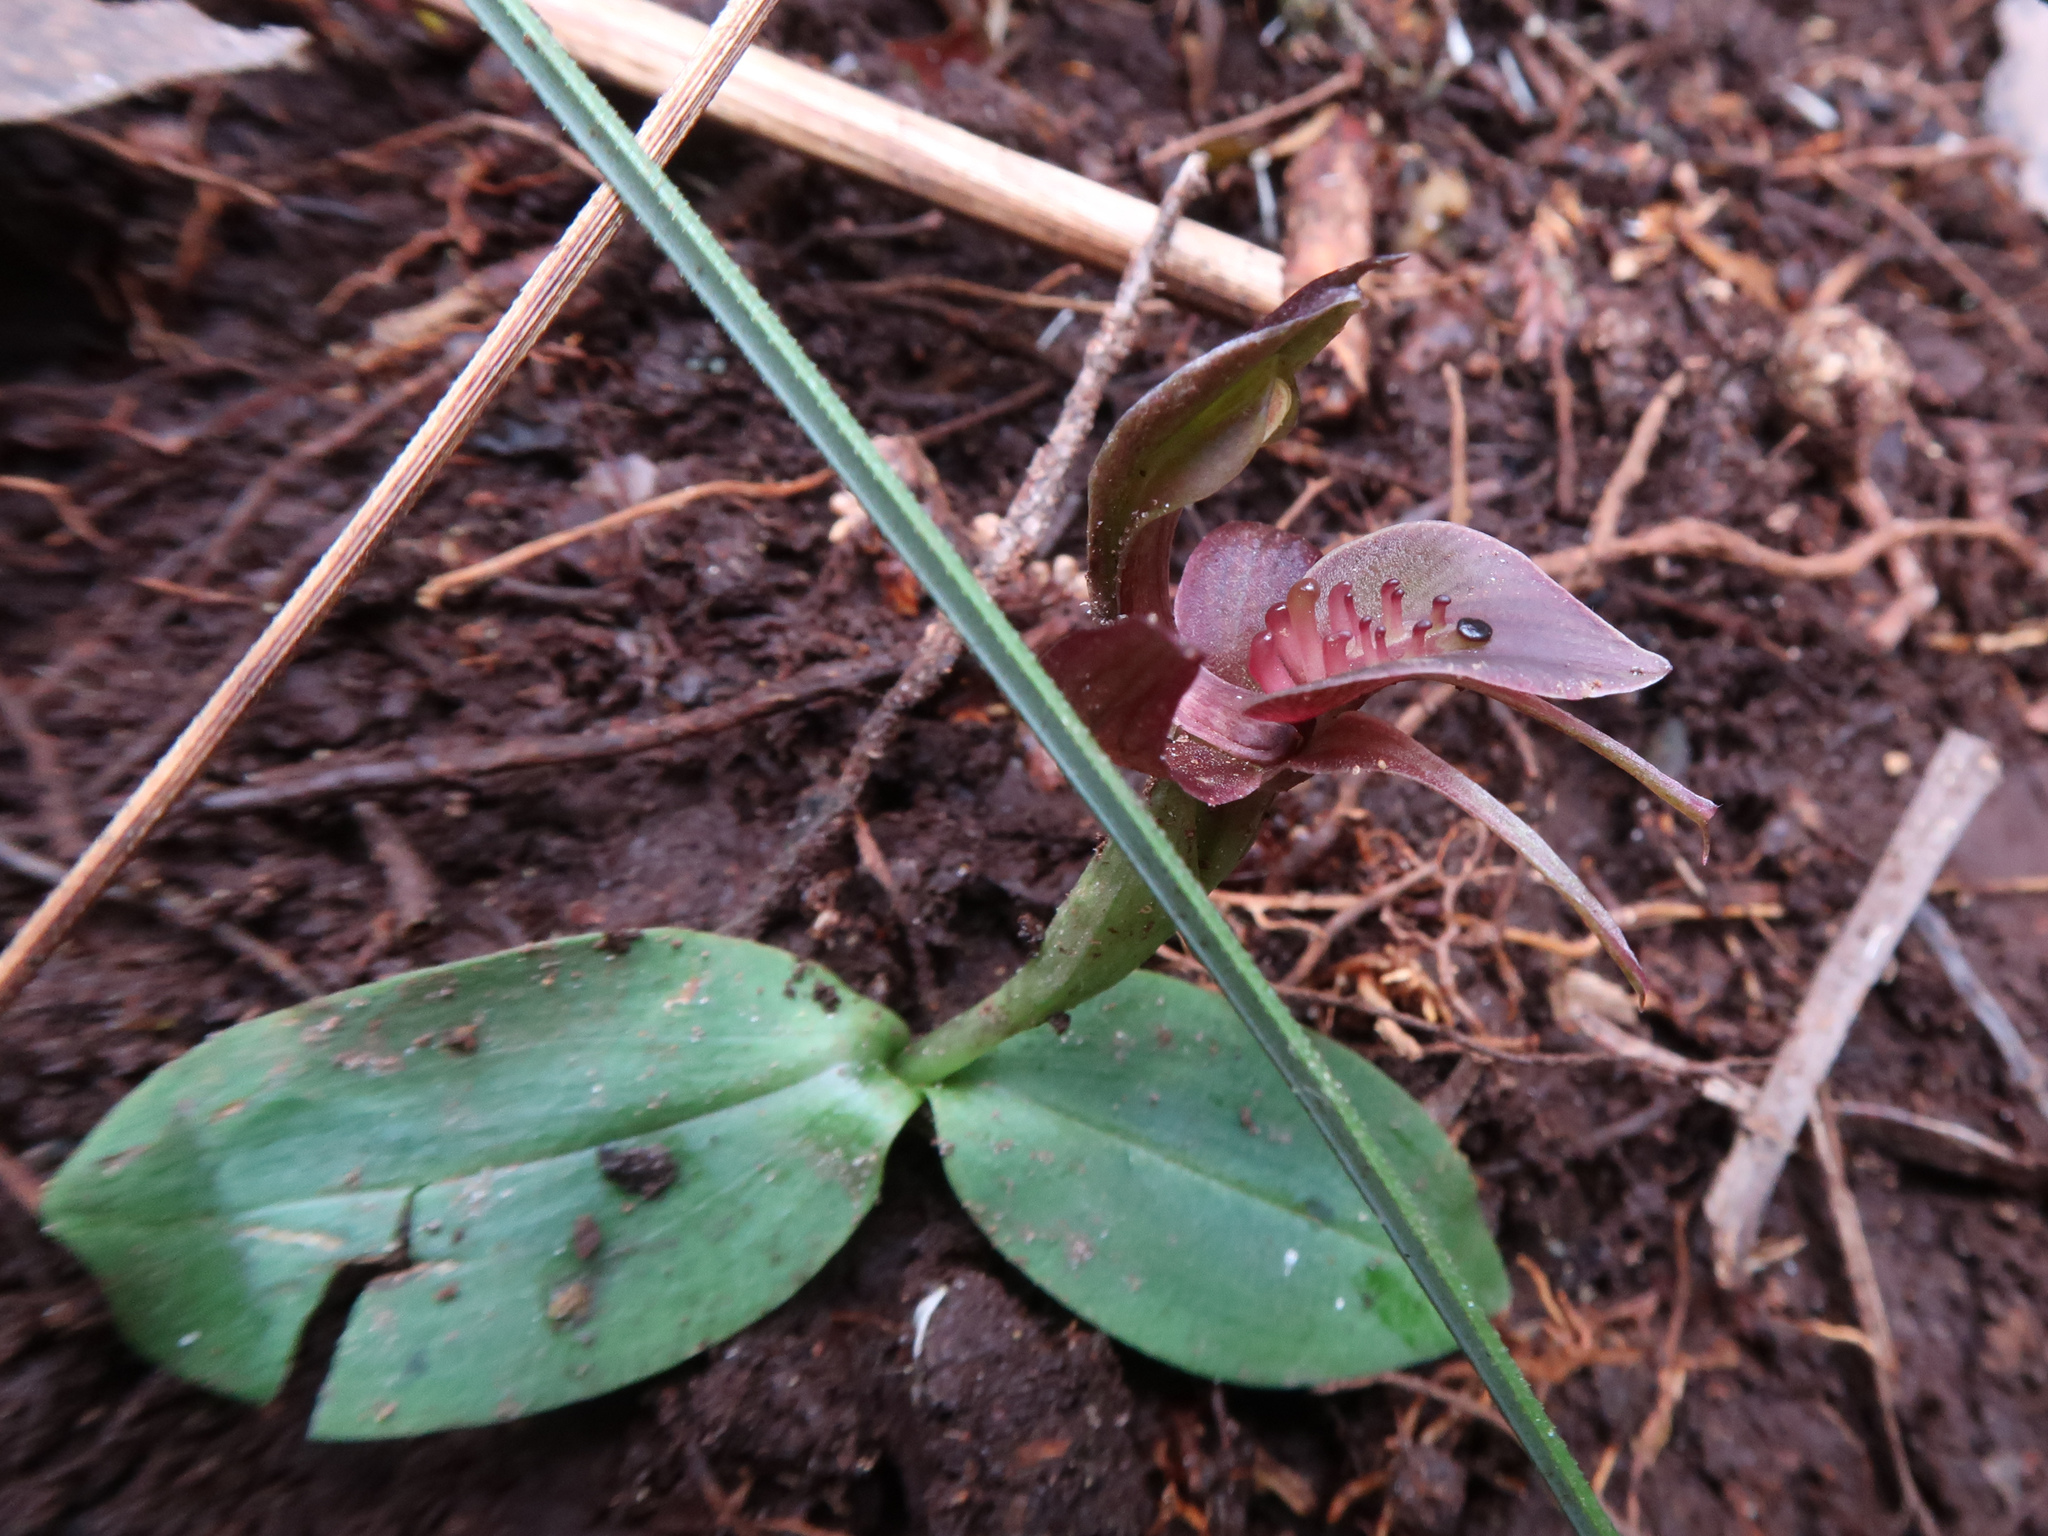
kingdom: Plantae
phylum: Tracheophyta
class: Liliopsida
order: Asparagales
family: Orchidaceae
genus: Chiloglottis
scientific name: Chiloglottis triceratops
